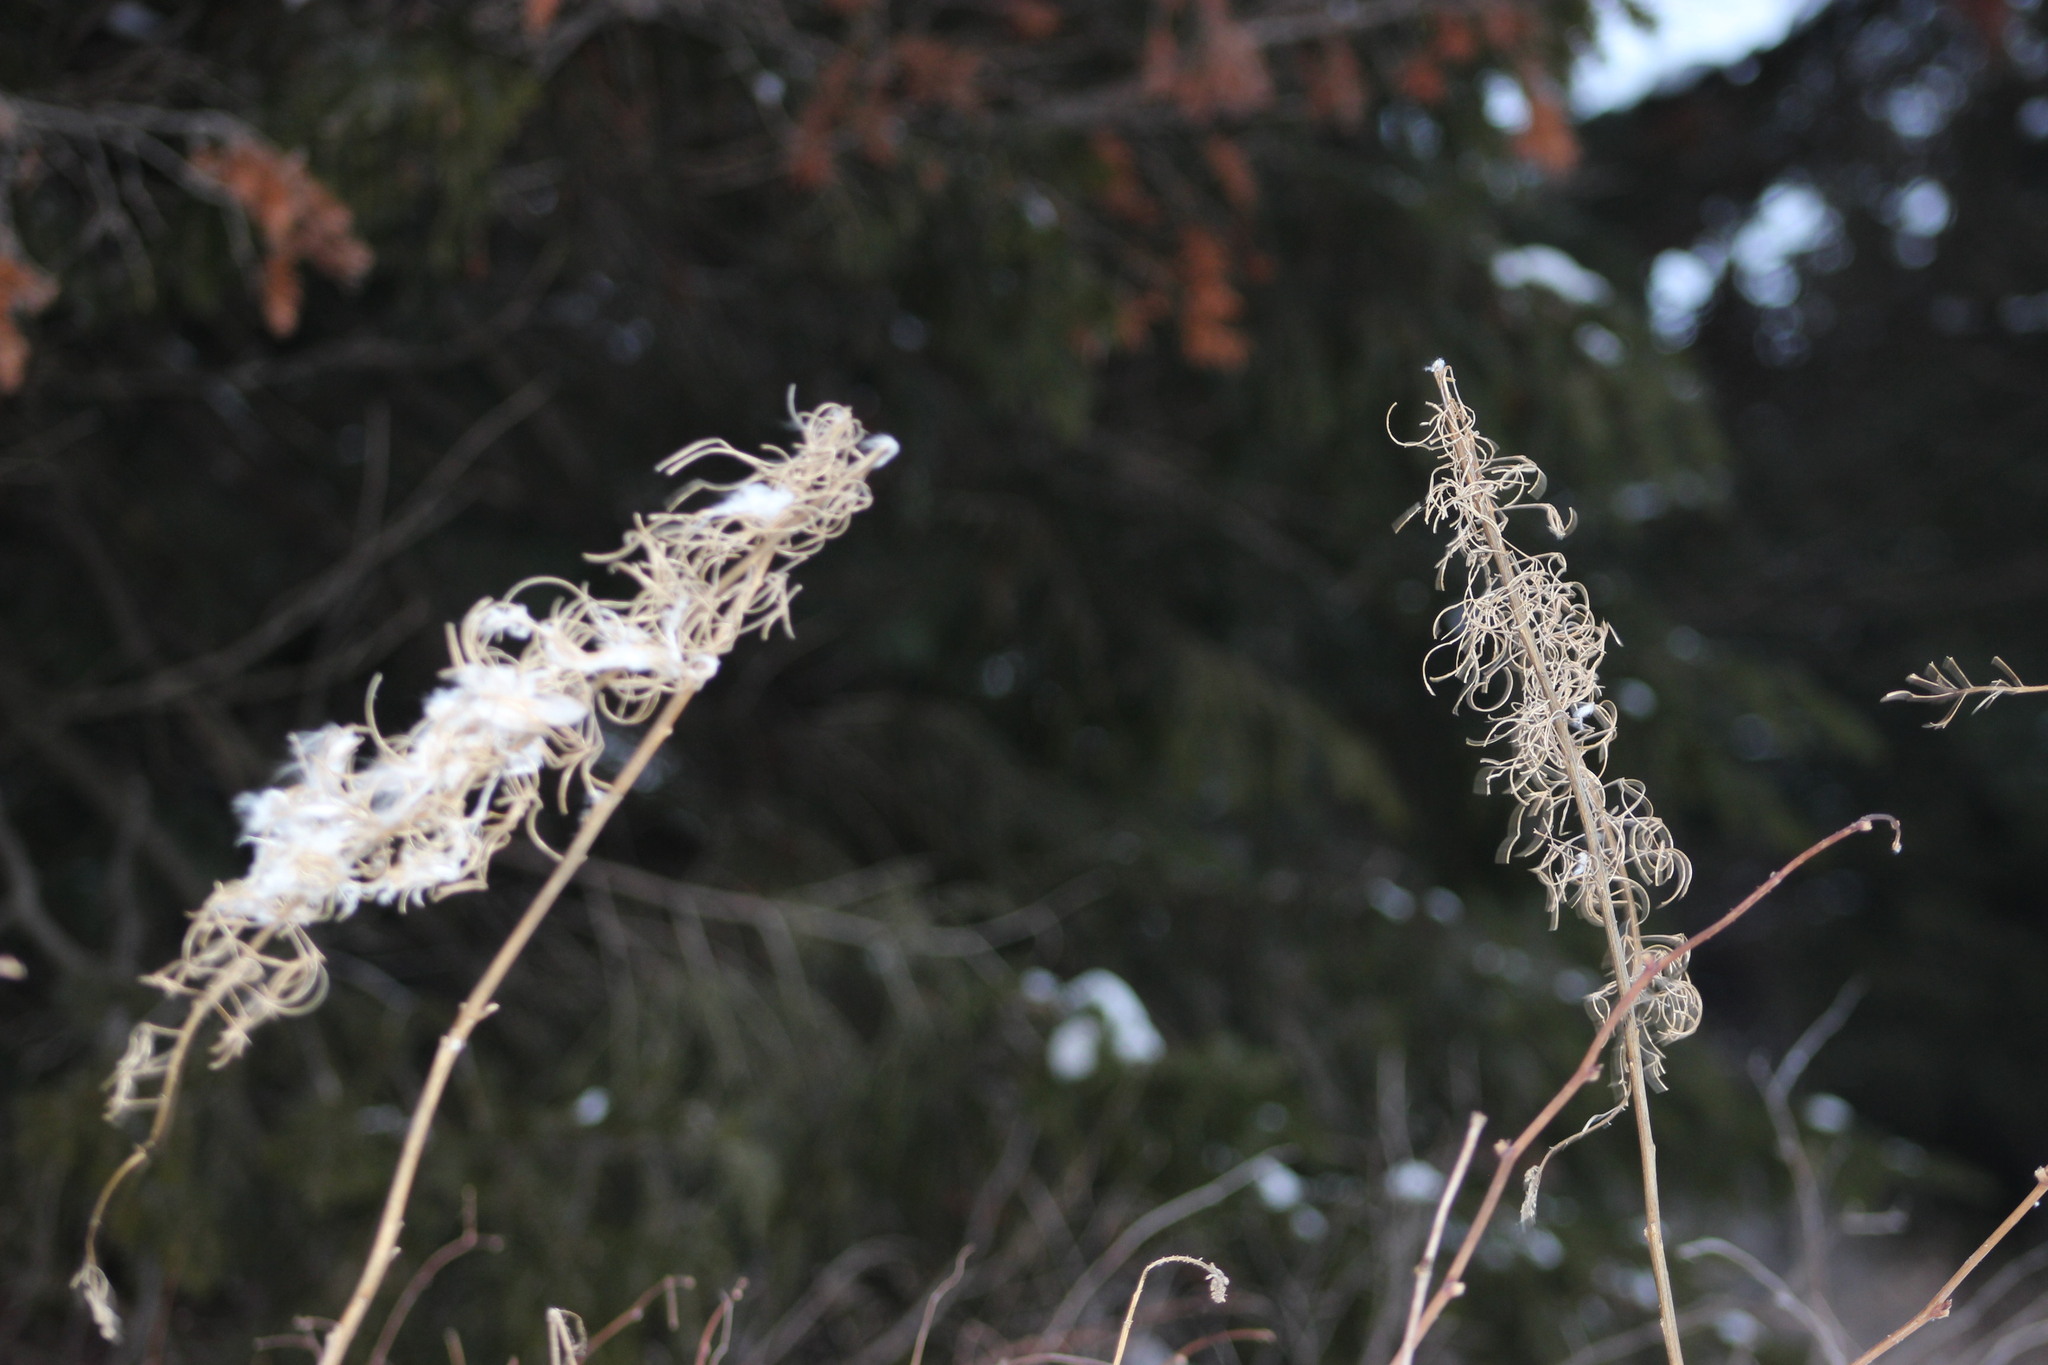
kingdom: Plantae
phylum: Tracheophyta
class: Magnoliopsida
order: Myrtales
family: Onagraceae
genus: Chamaenerion
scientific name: Chamaenerion angustifolium
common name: Fireweed
